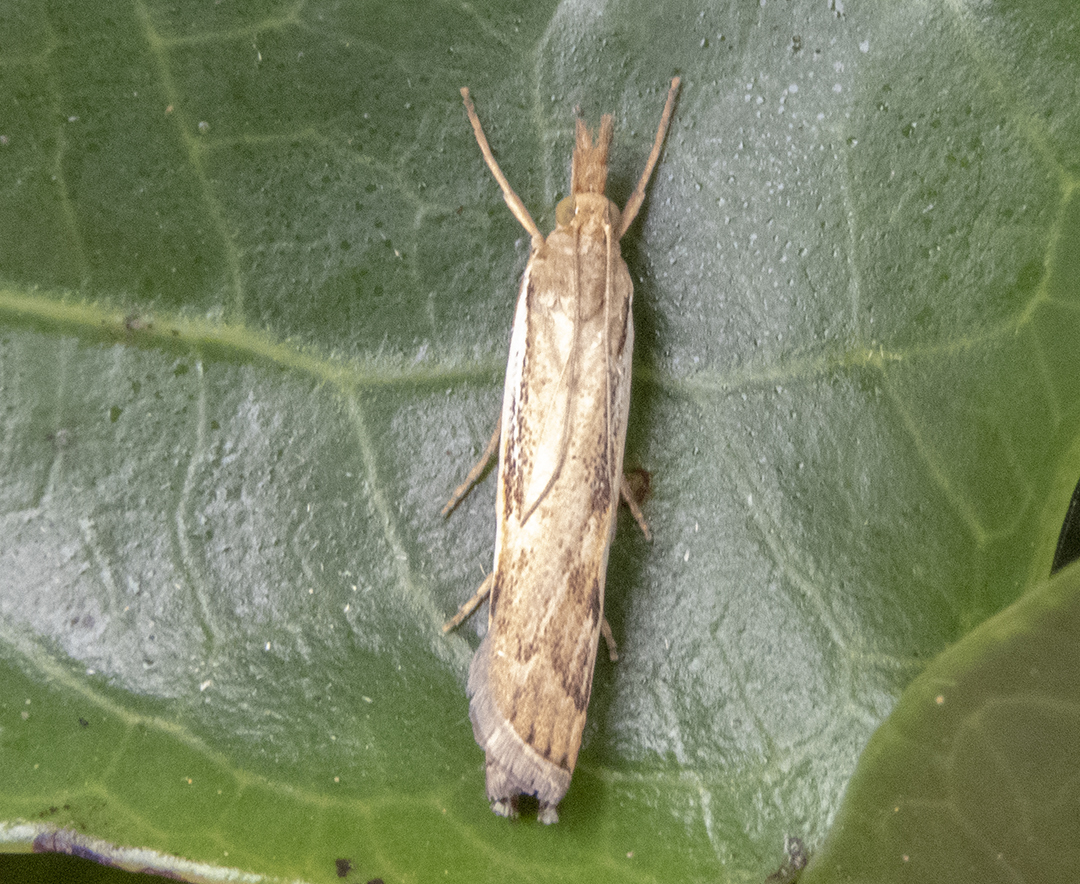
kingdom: Animalia
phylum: Arthropoda
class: Insecta
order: Lepidoptera
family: Crambidae
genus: Orocrambus
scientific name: Orocrambus flexuosellus
